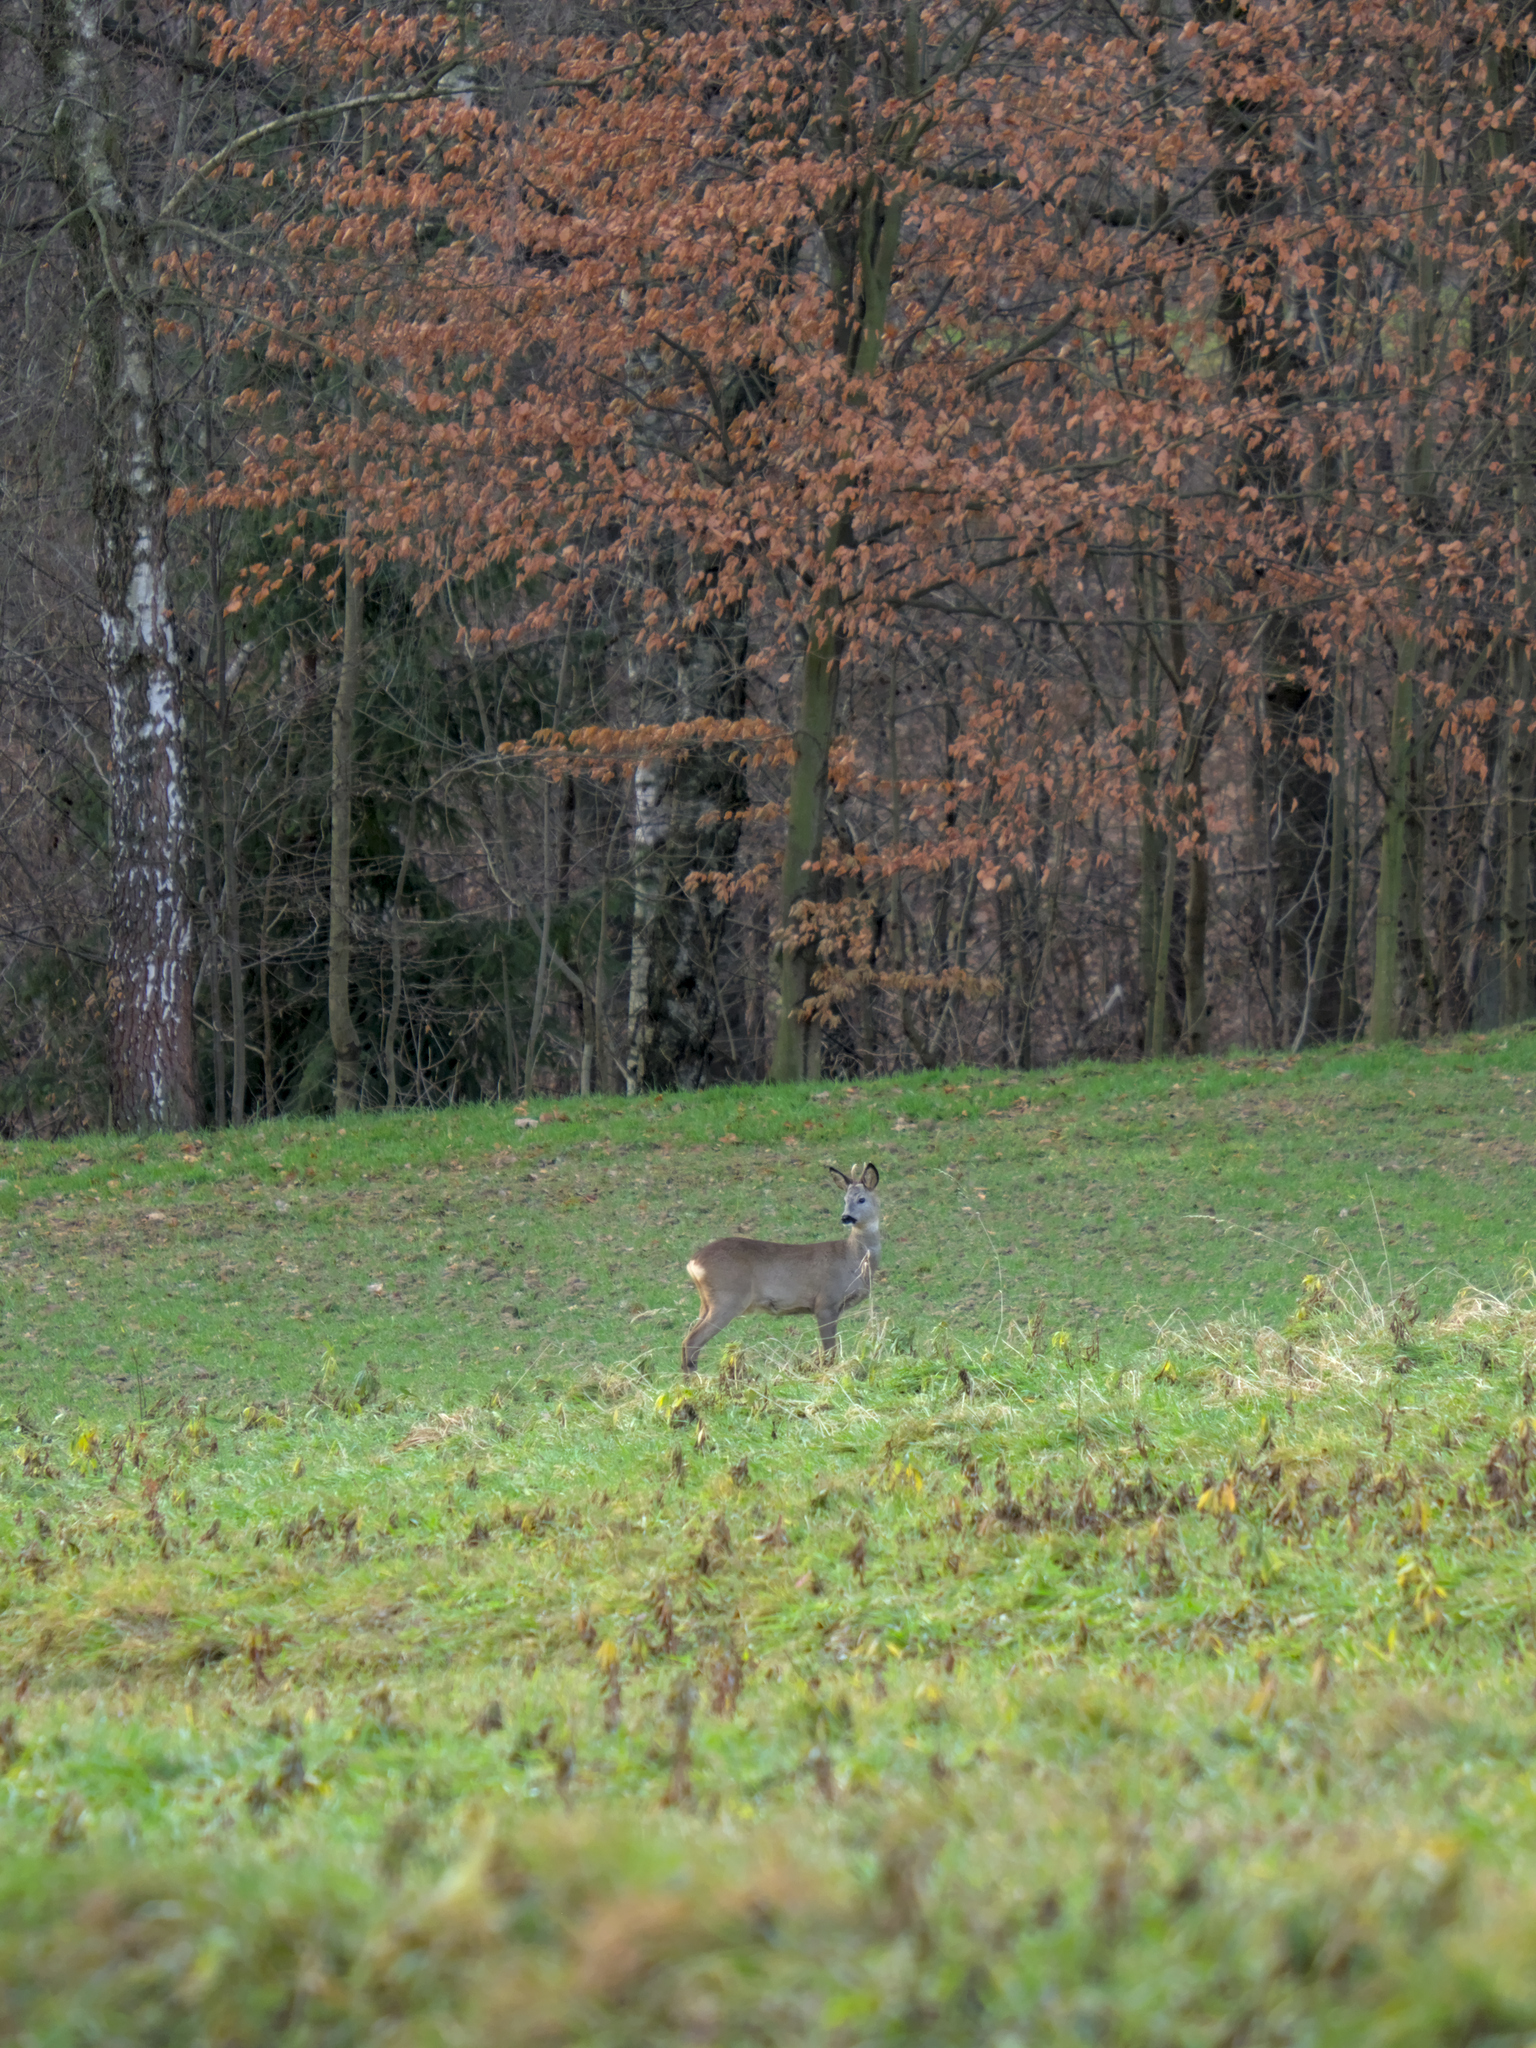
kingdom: Animalia
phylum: Chordata
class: Mammalia
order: Artiodactyla
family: Cervidae
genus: Capreolus
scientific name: Capreolus capreolus
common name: Western roe deer
